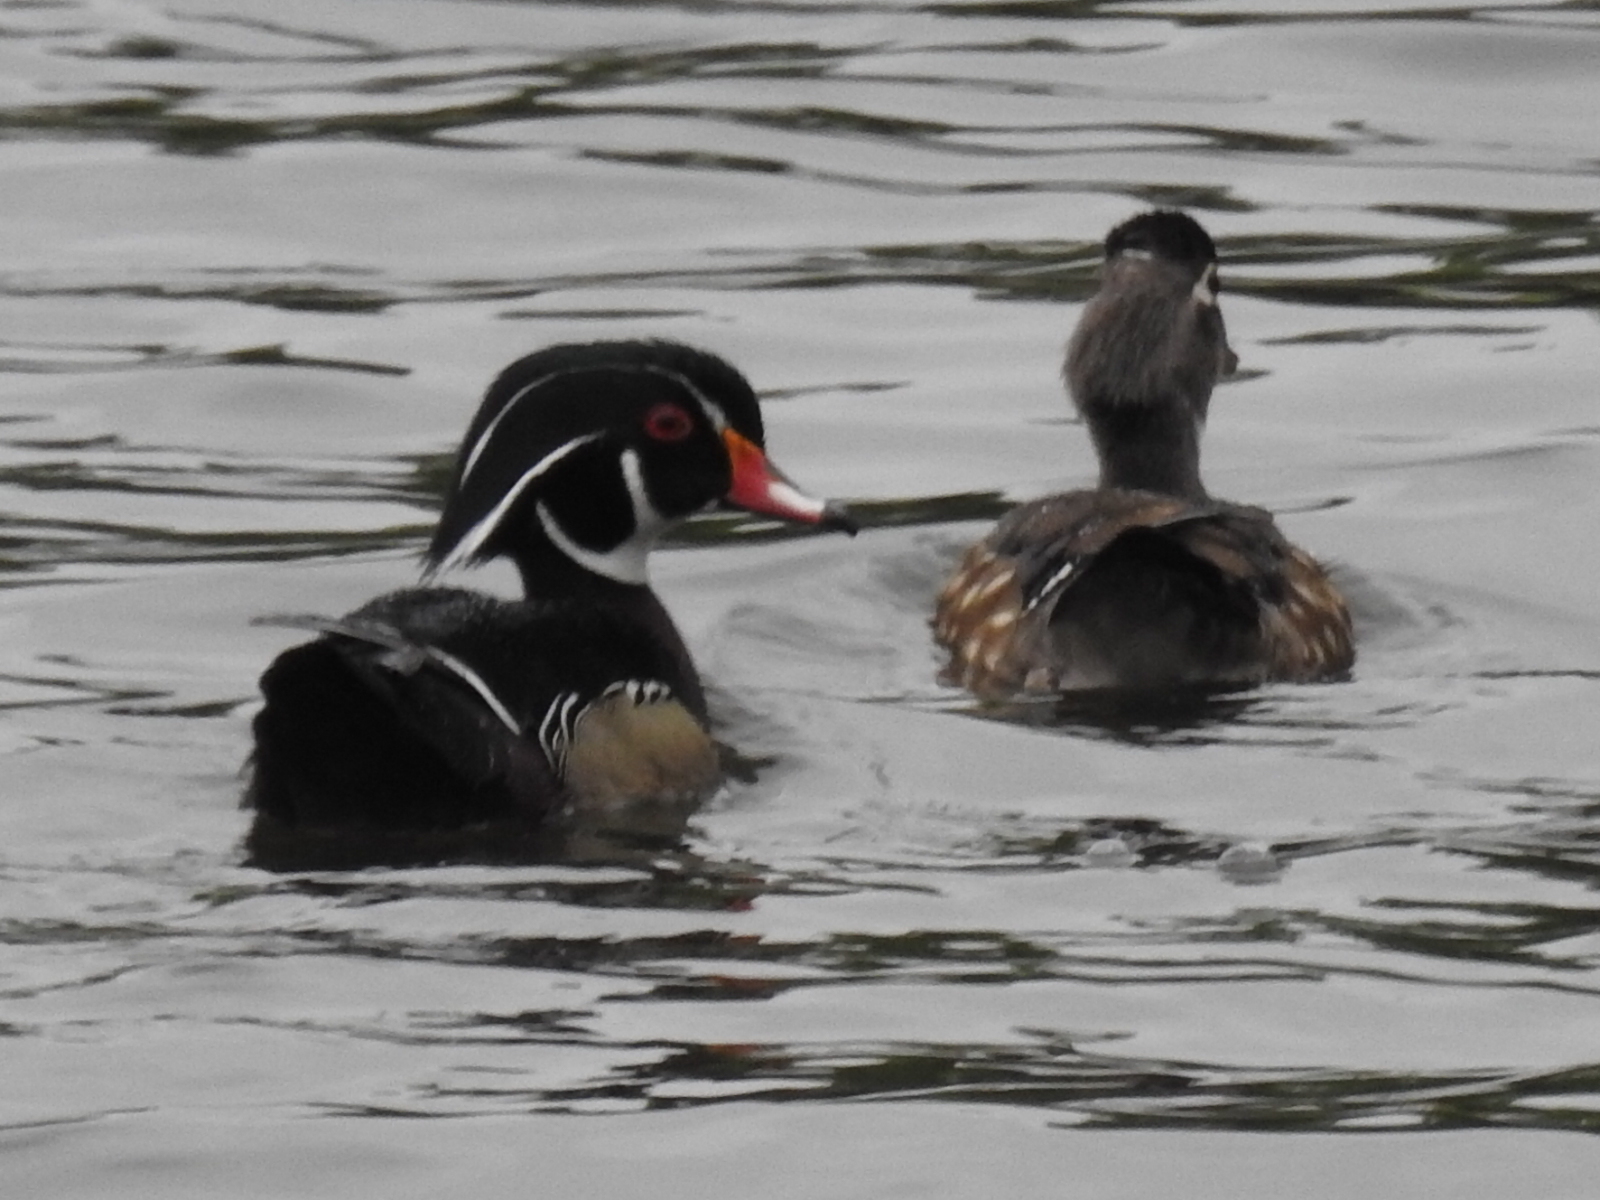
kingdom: Animalia
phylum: Chordata
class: Aves
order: Anseriformes
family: Anatidae
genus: Aix
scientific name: Aix sponsa
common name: Wood duck
